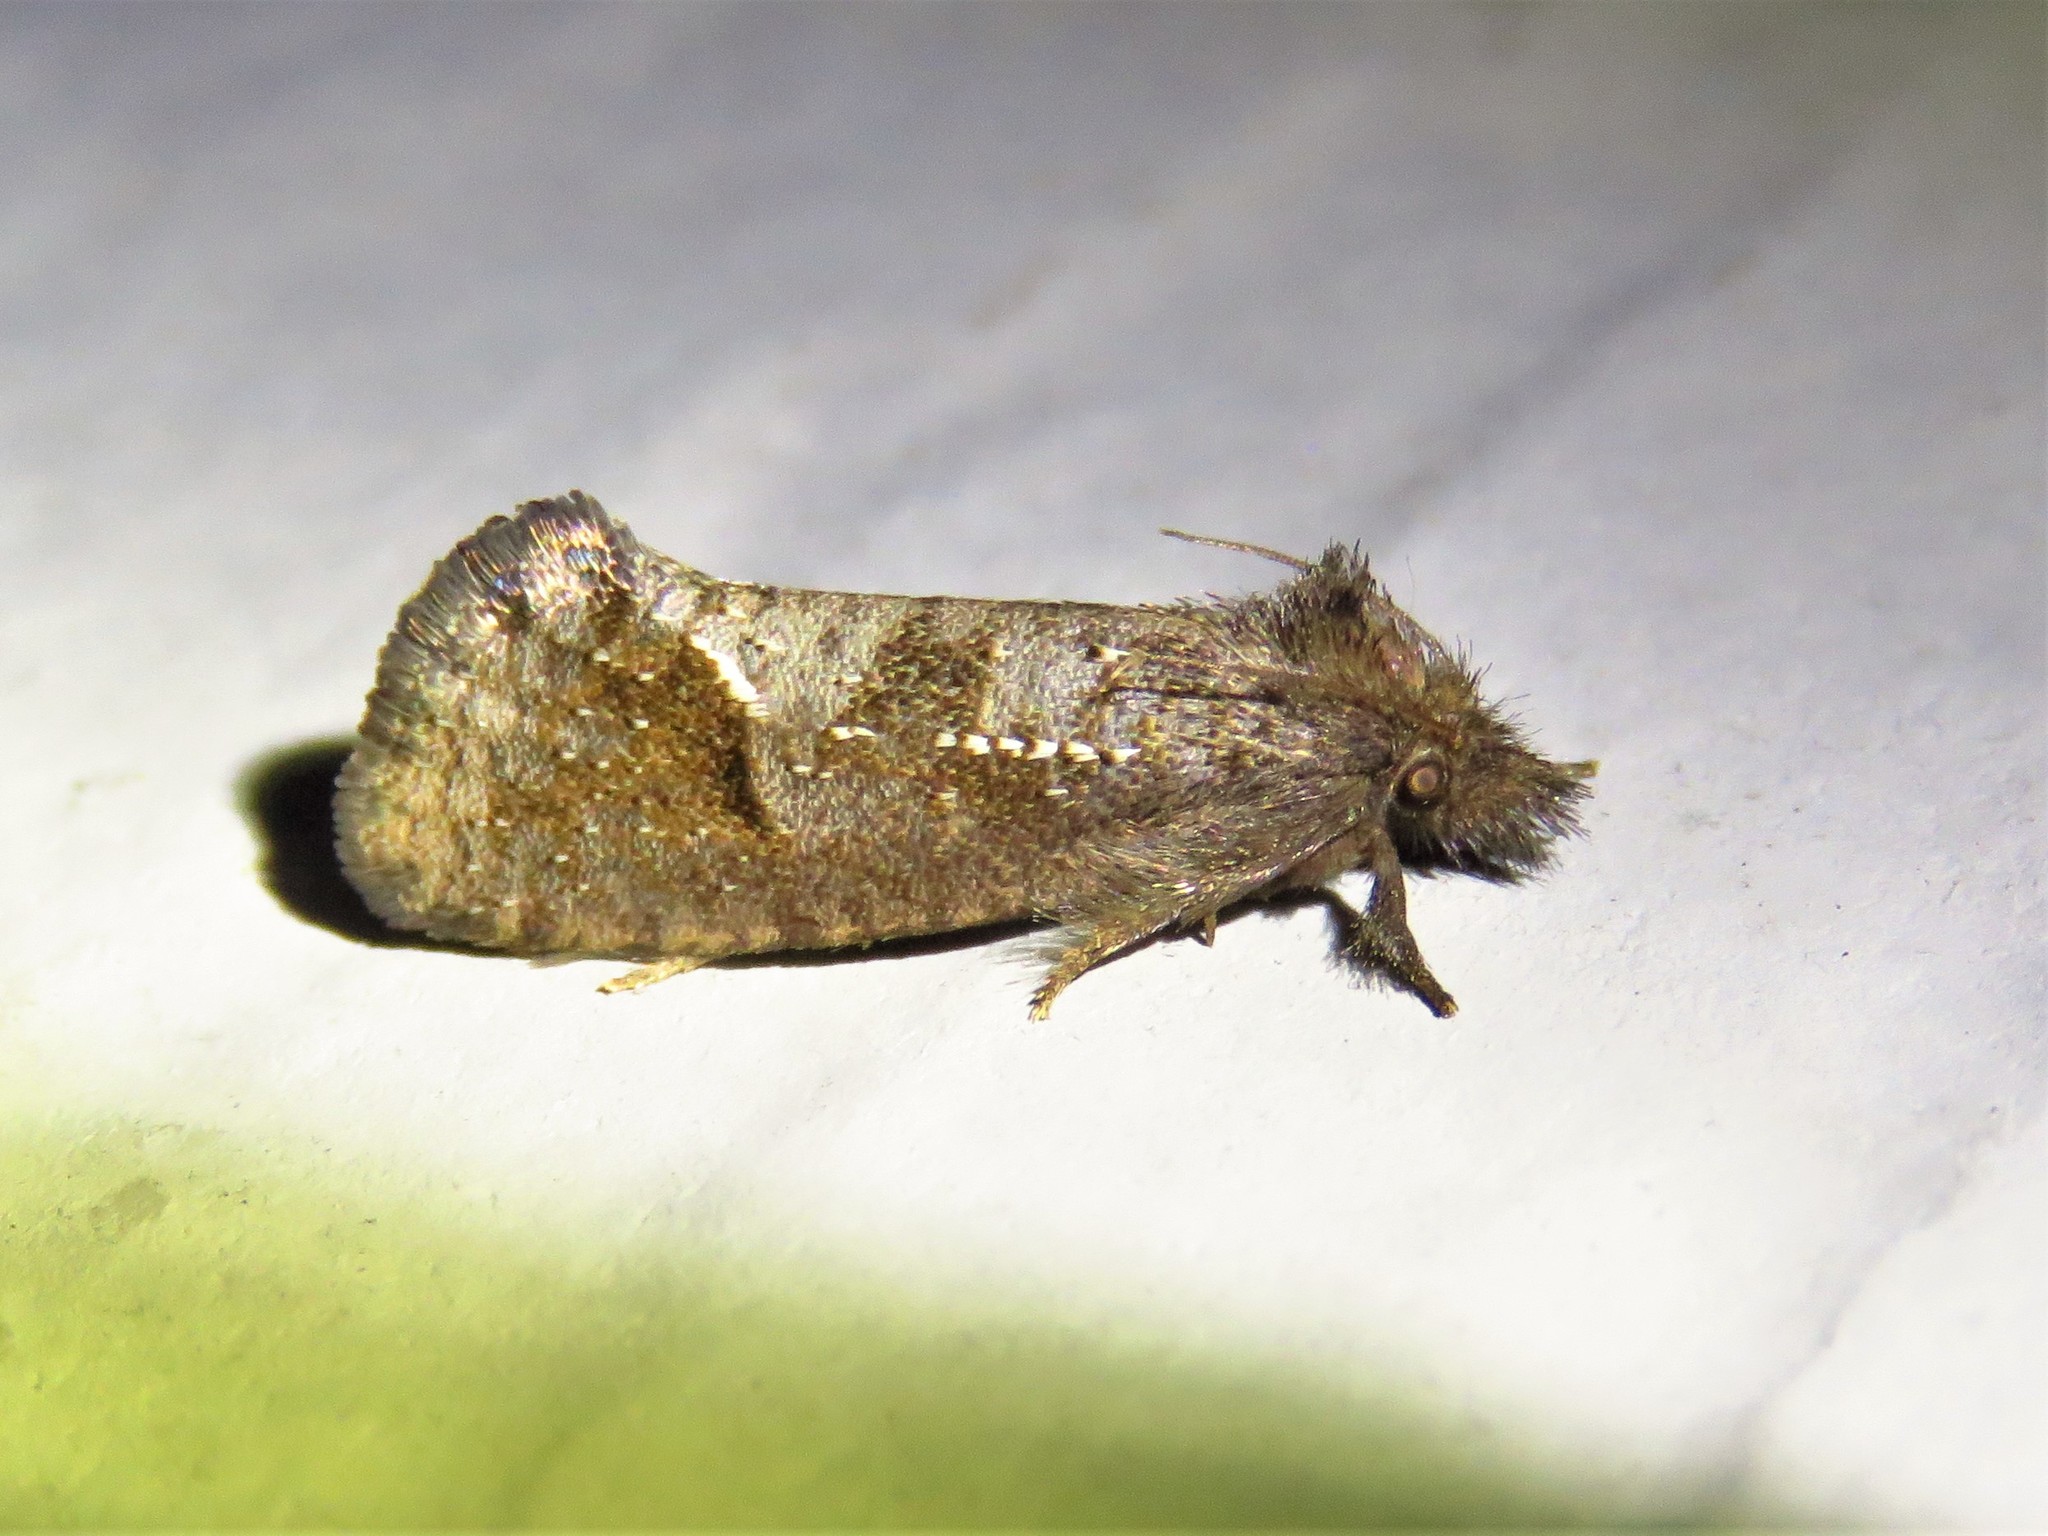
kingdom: Animalia
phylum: Arthropoda
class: Insecta
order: Lepidoptera
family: Tineidae
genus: Acrolophus
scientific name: Acrolophus texanella
